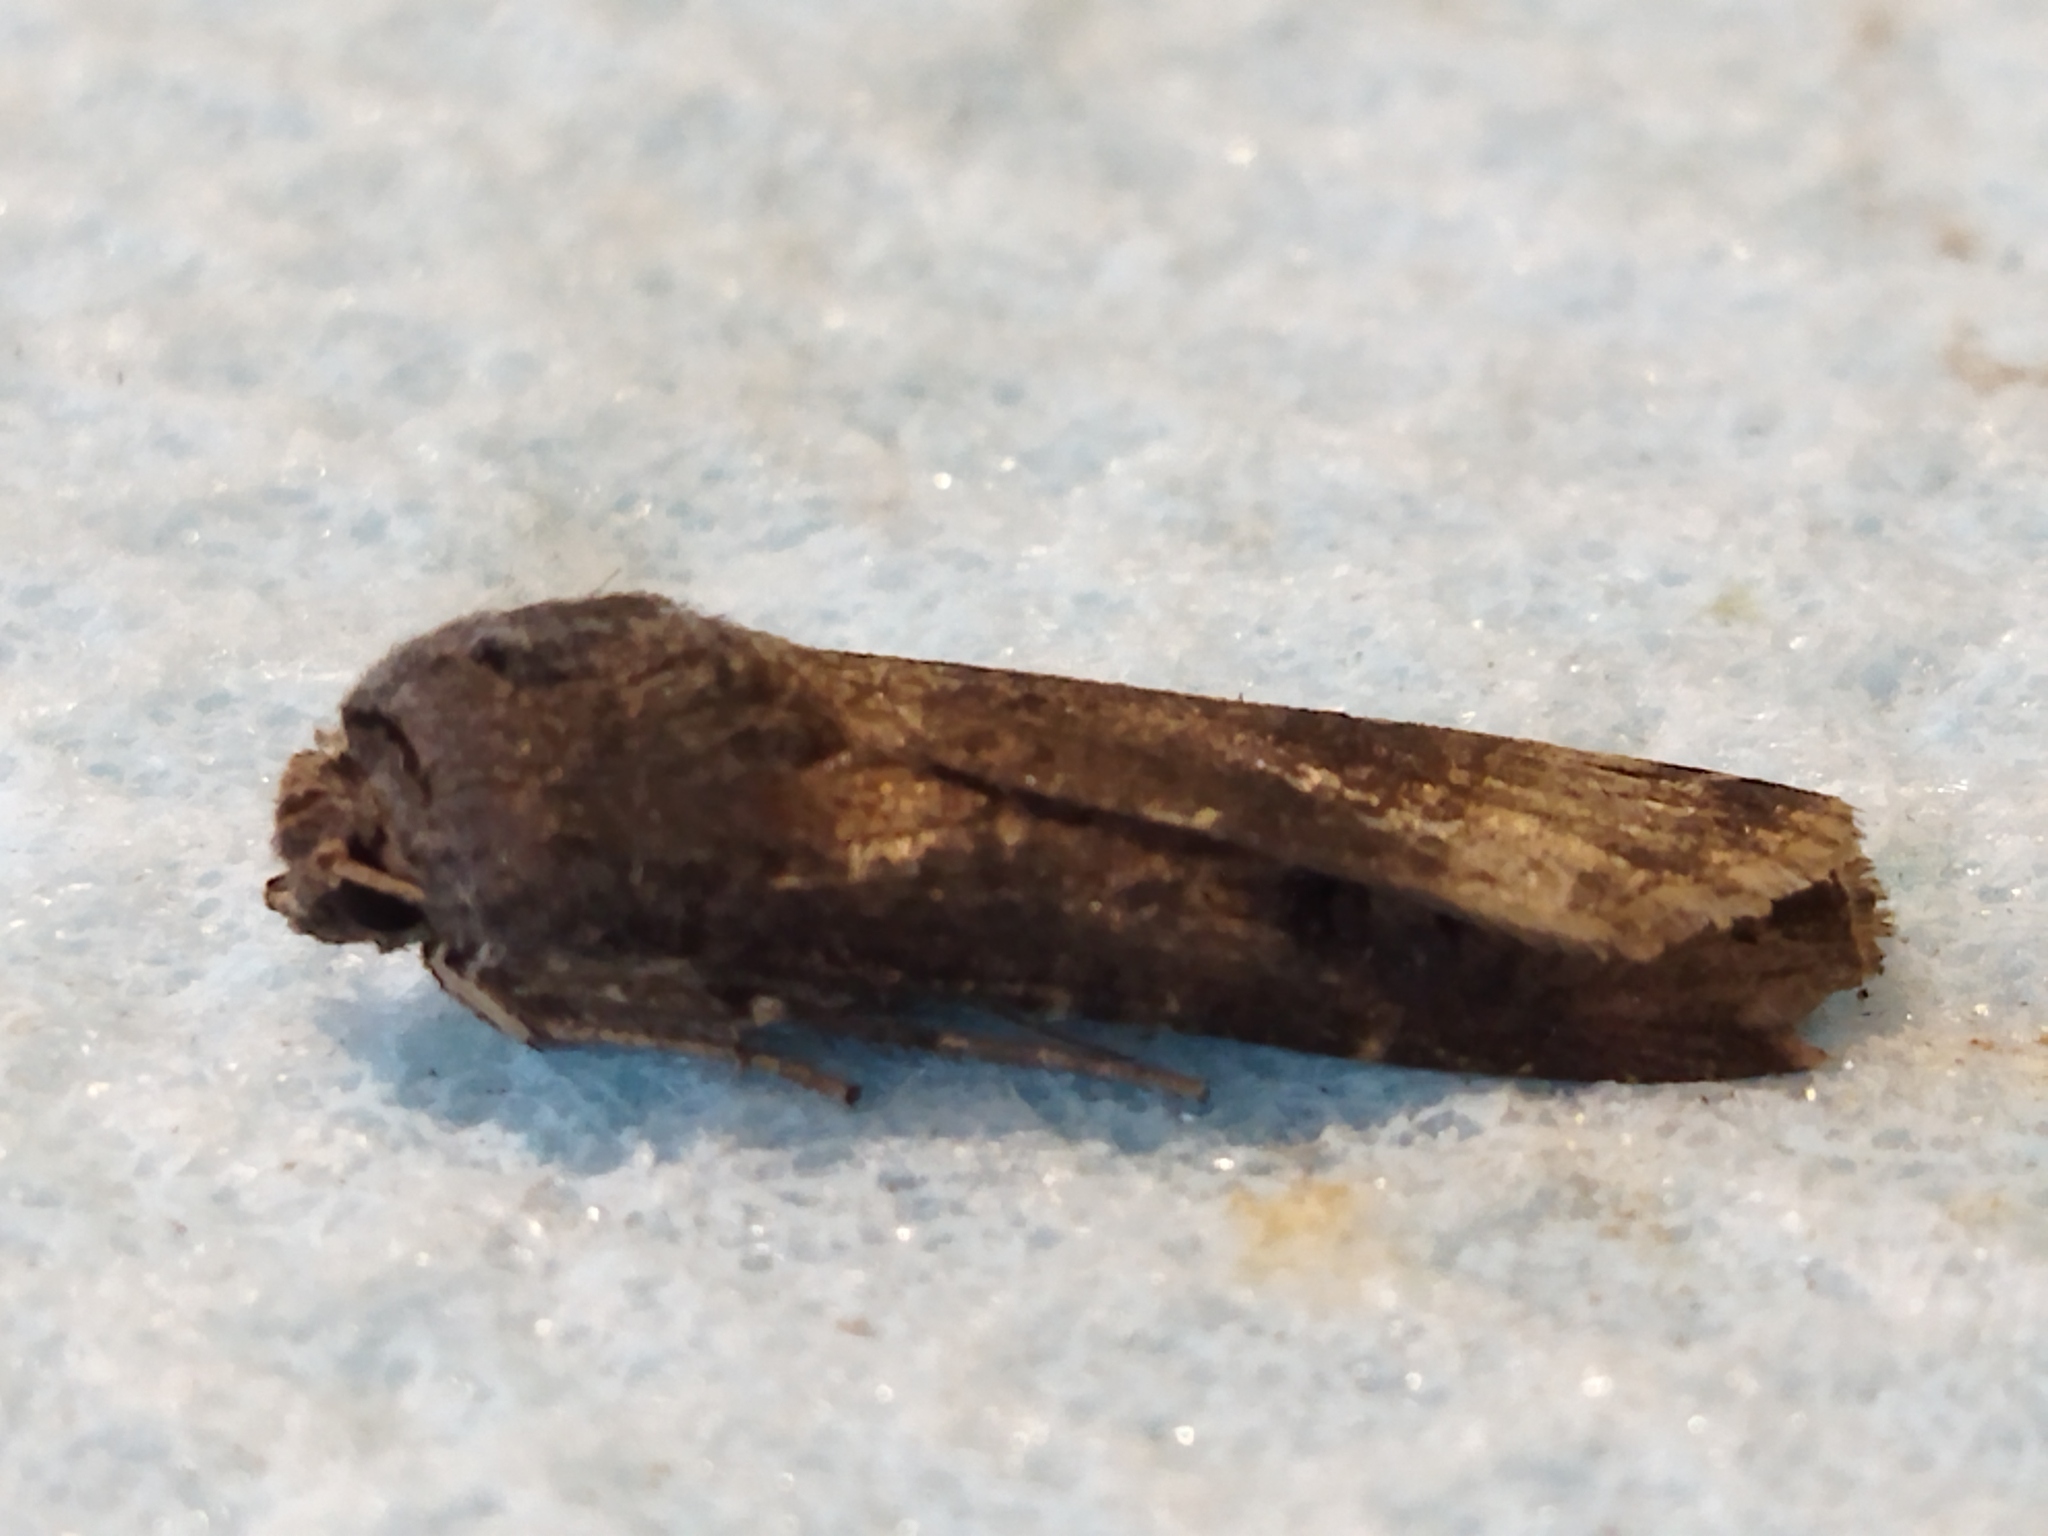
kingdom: Animalia
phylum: Arthropoda
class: Insecta
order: Lepidoptera
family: Noctuidae
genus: Agrotis
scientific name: Agrotis ipsilon
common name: Dark sword-grass
